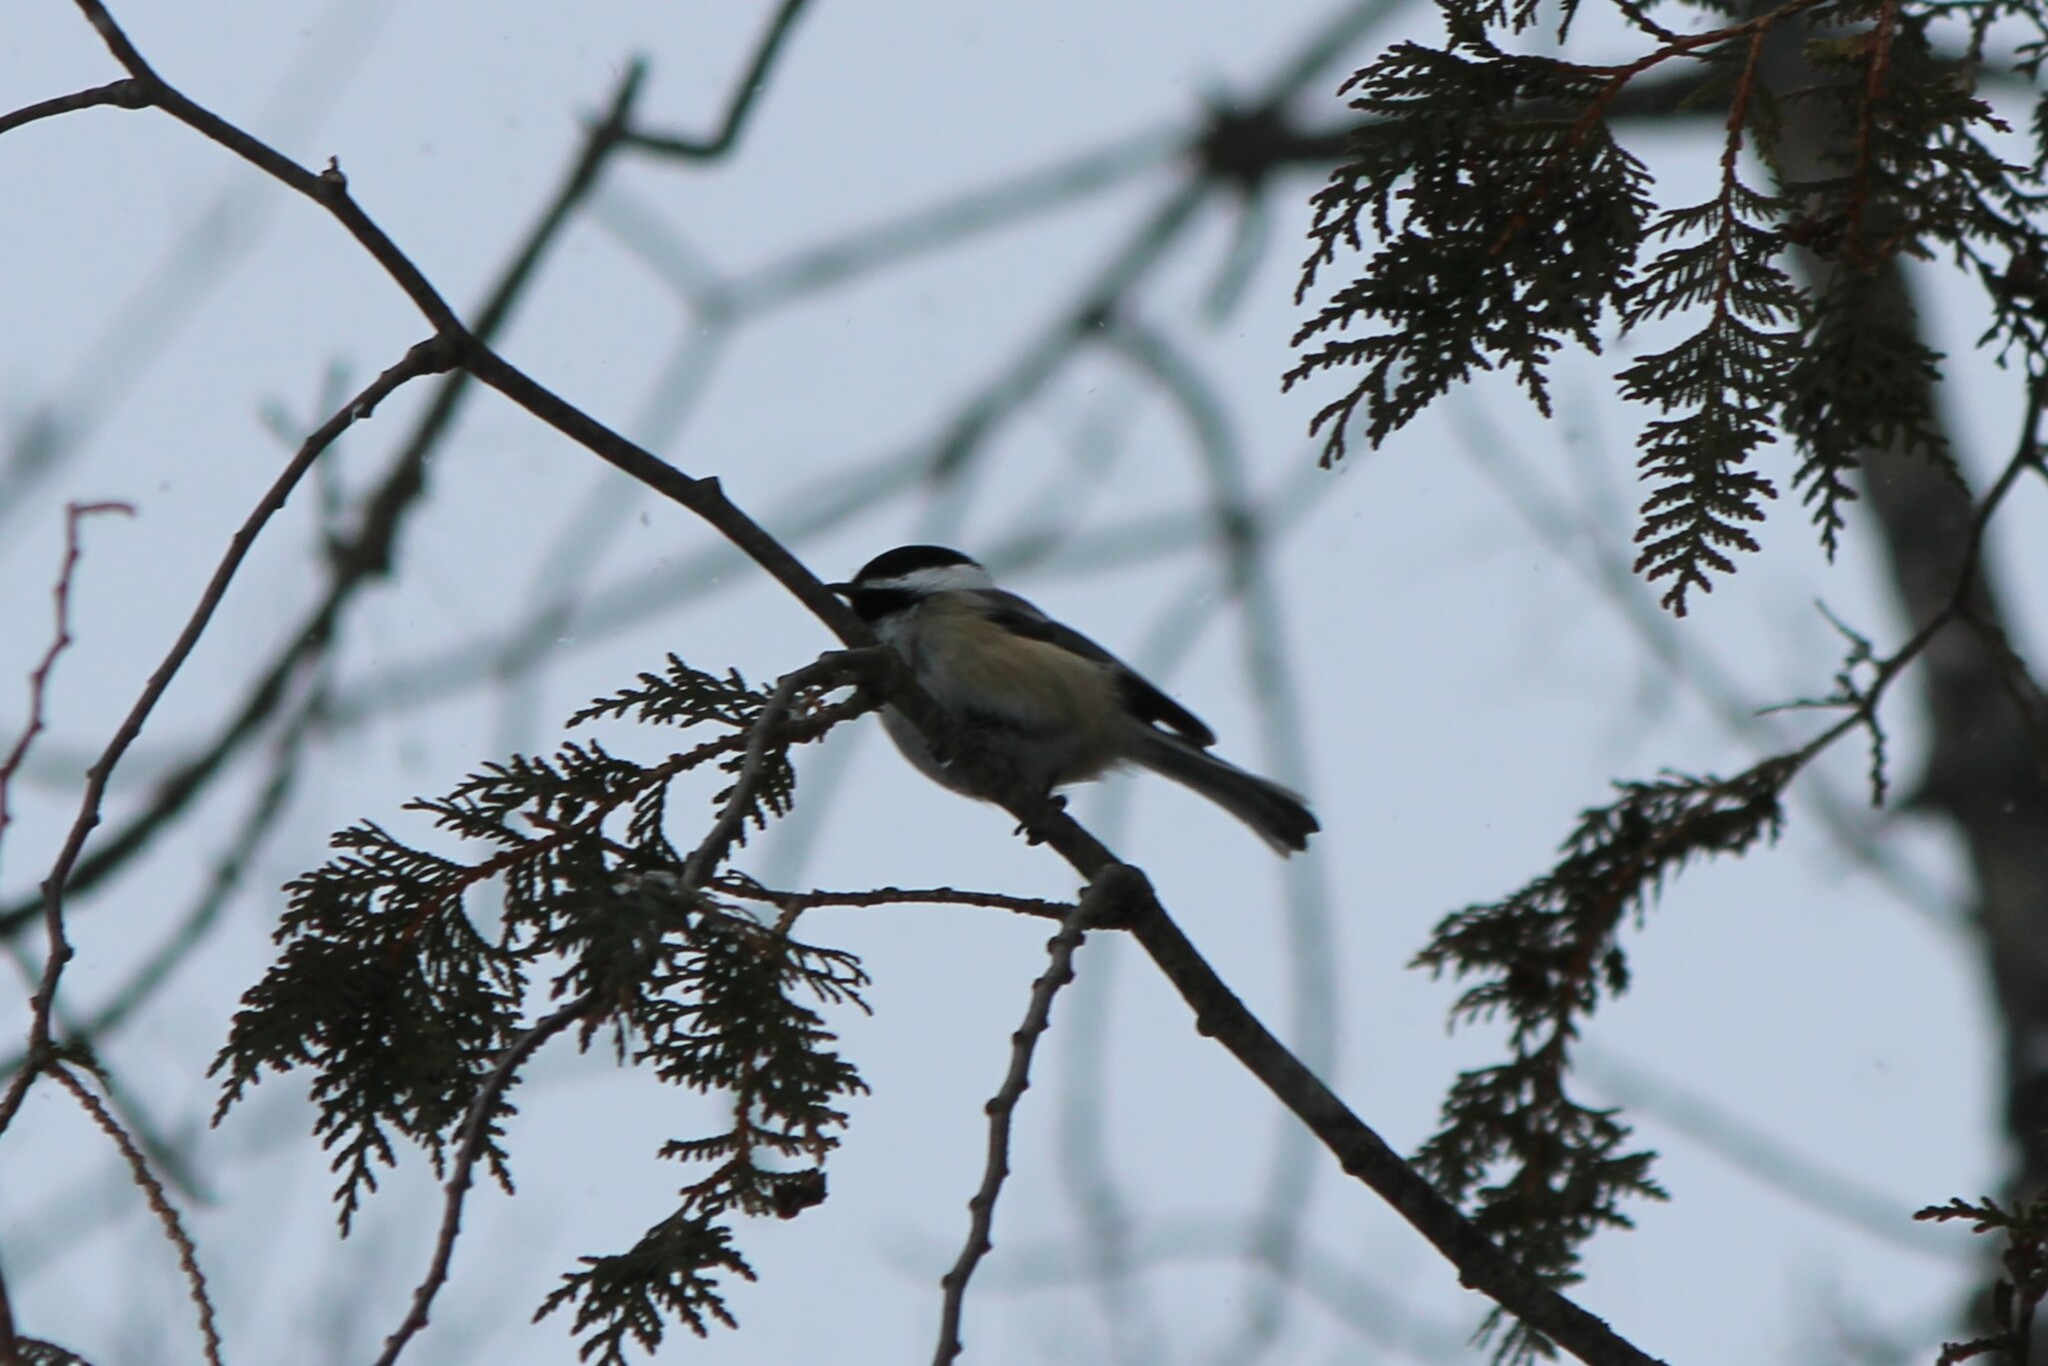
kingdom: Animalia
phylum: Chordata
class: Aves
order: Passeriformes
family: Paridae
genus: Poecile
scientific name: Poecile atricapillus
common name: Black-capped chickadee
